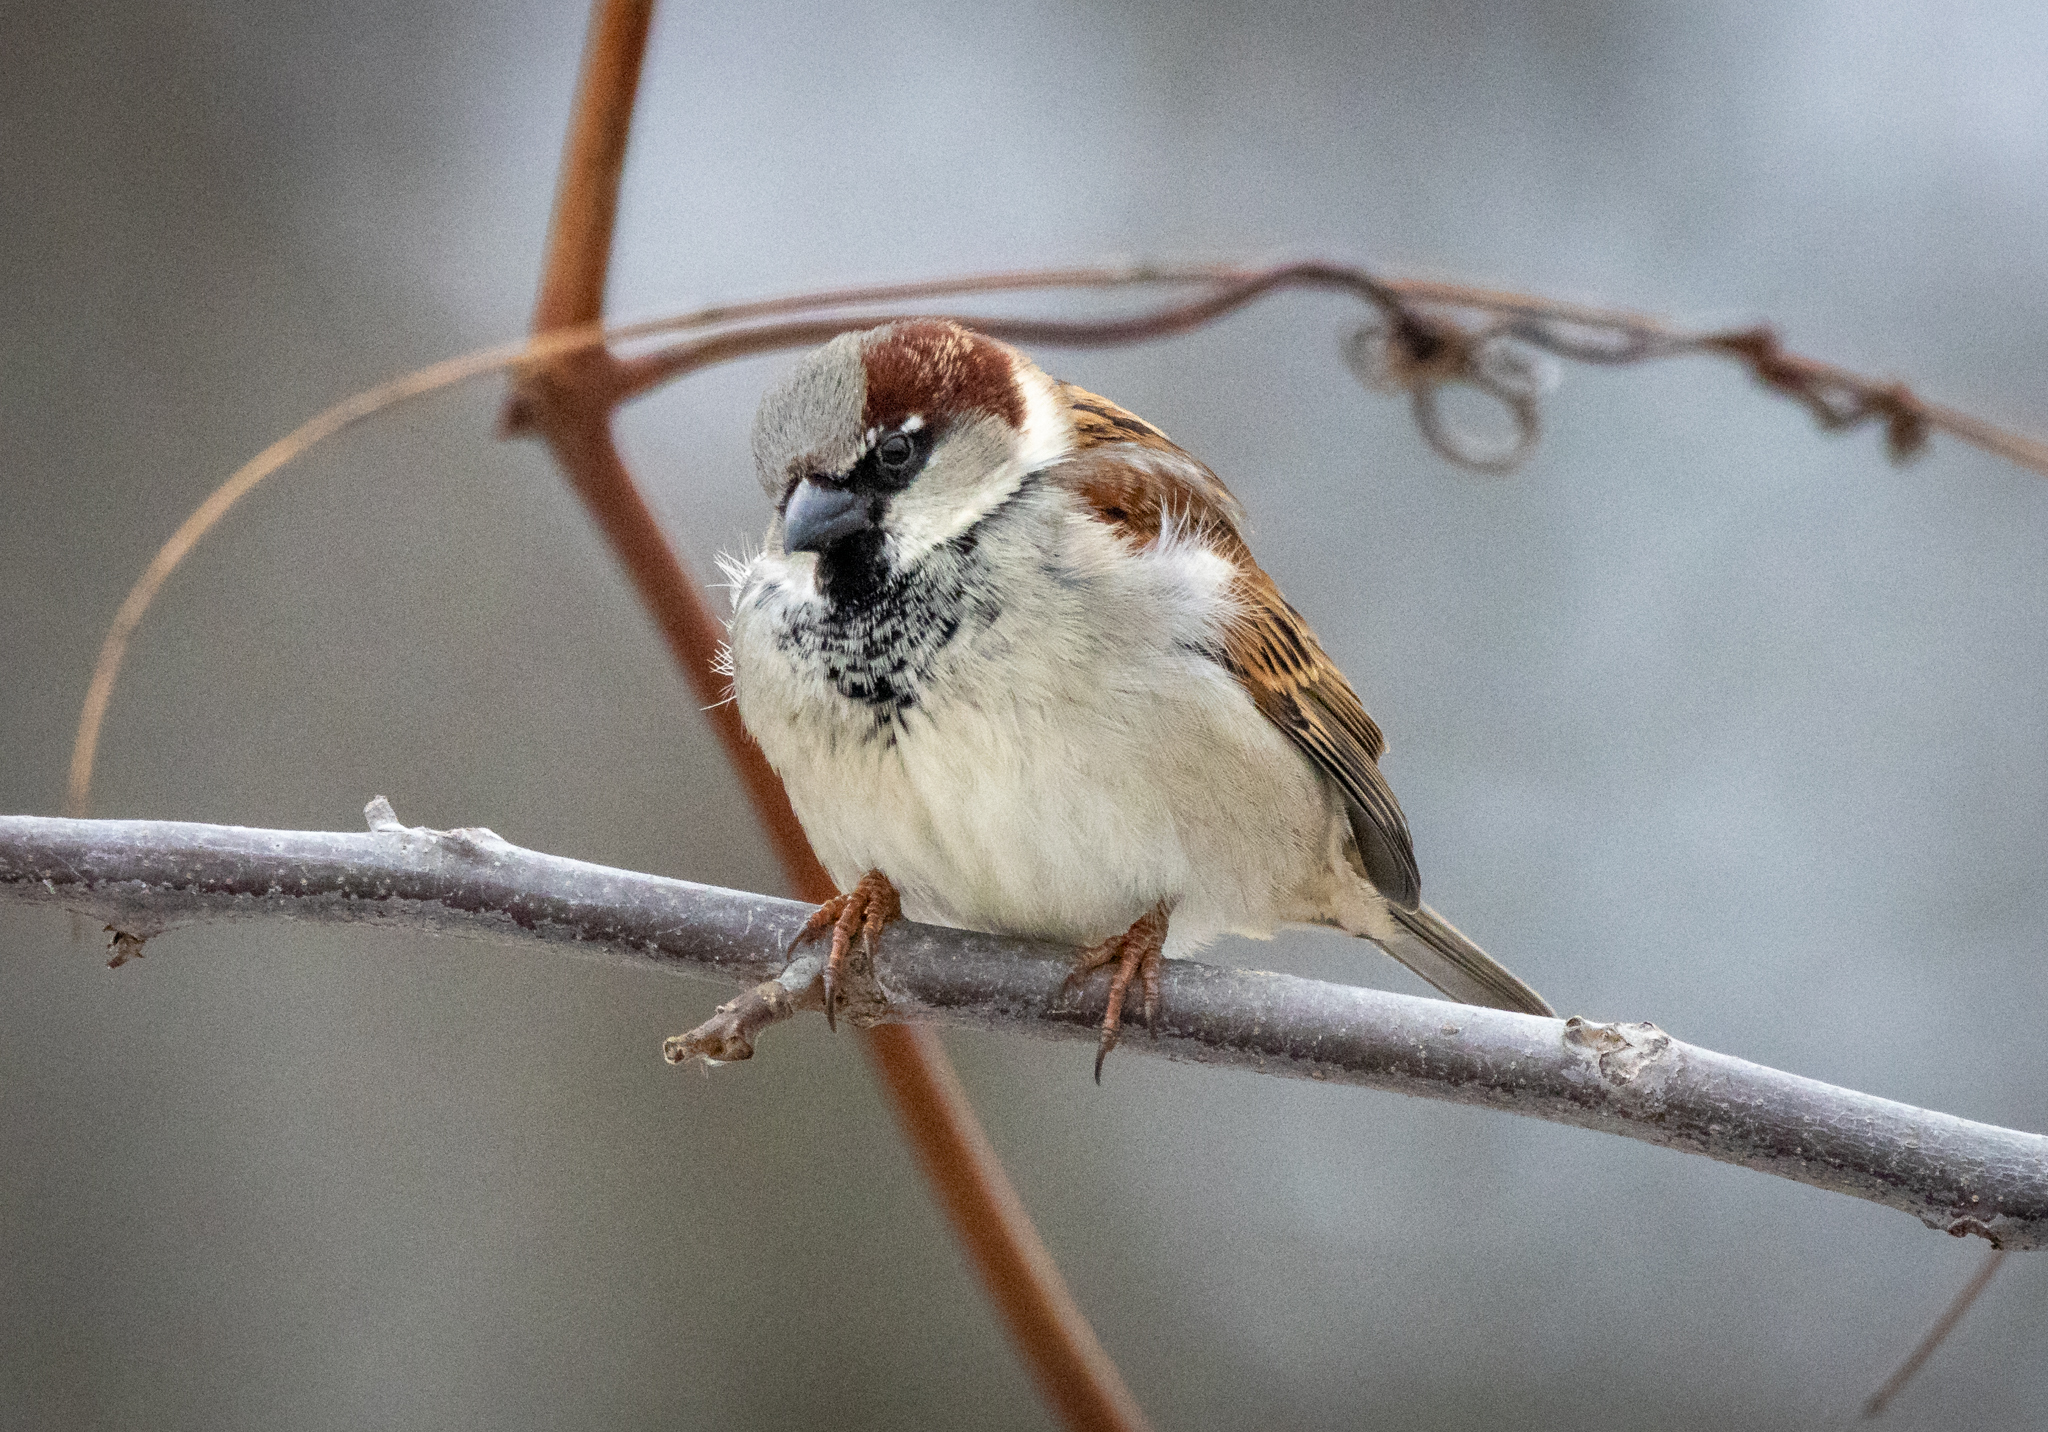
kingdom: Animalia
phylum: Chordata
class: Aves
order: Passeriformes
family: Passeridae
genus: Passer
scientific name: Passer domesticus
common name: House sparrow
